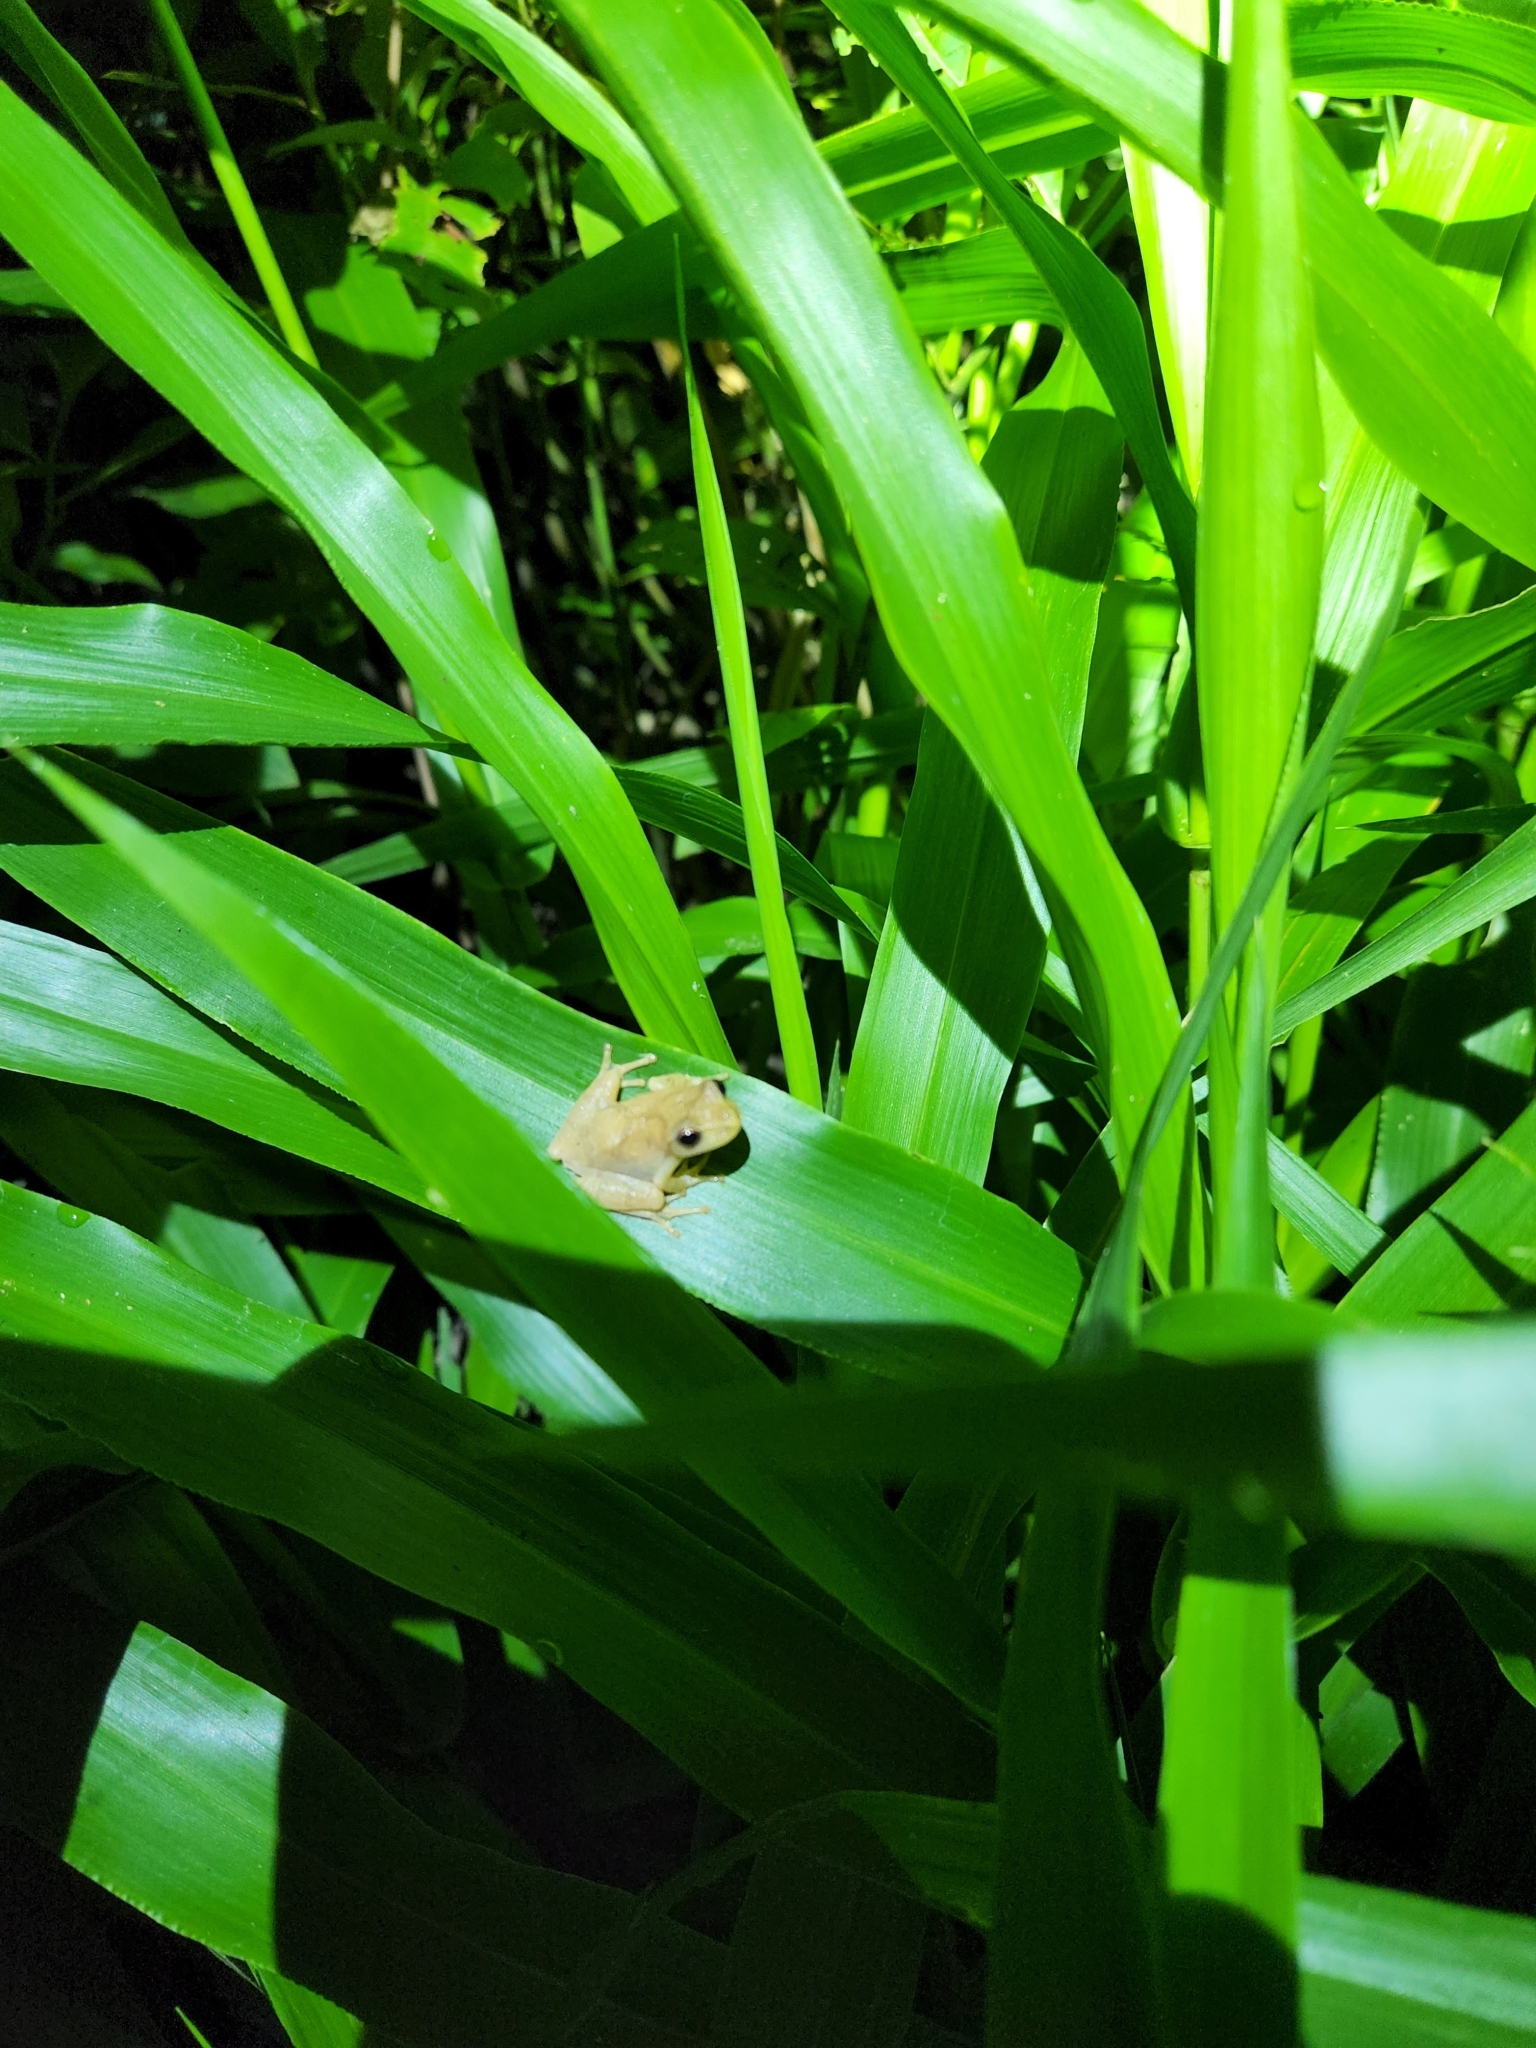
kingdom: Animalia
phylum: Chordata
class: Amphibia
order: Anura
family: Hylidae
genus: Pseudacris
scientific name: Pseudacris crucifer
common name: Spring peeper
